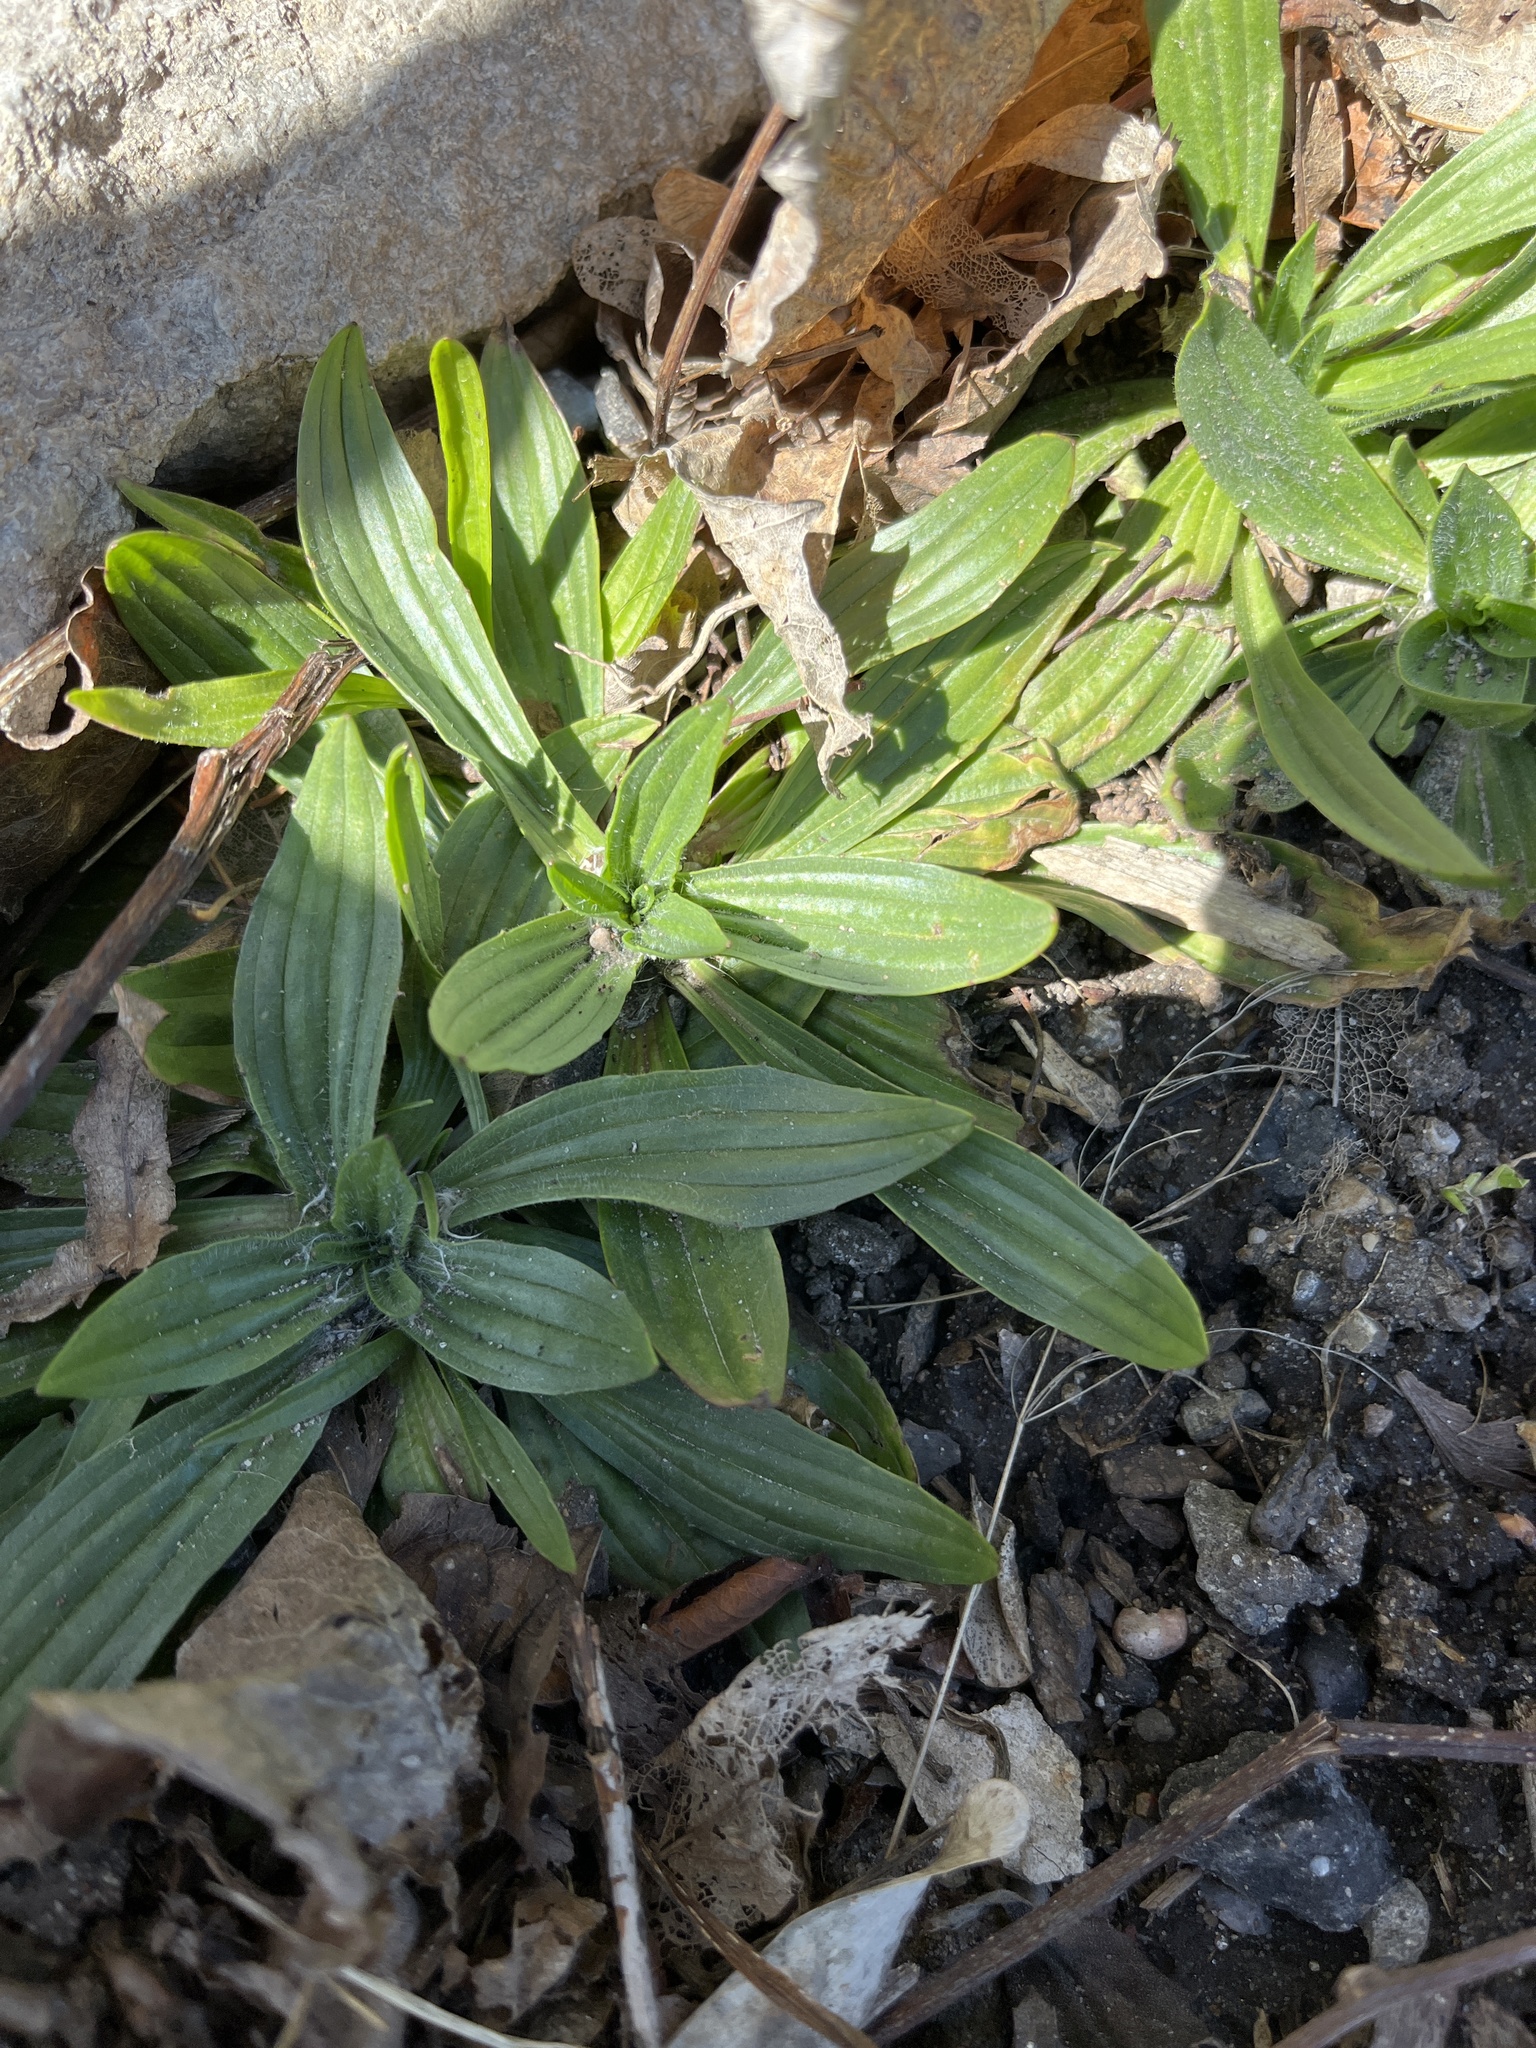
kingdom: Plantae
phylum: Tracheophyta
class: Magnoliopsida
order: Lamiales
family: Plantaginaceae
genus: Plantago
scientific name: Plantago lanceolata
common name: Ribwort plantain
